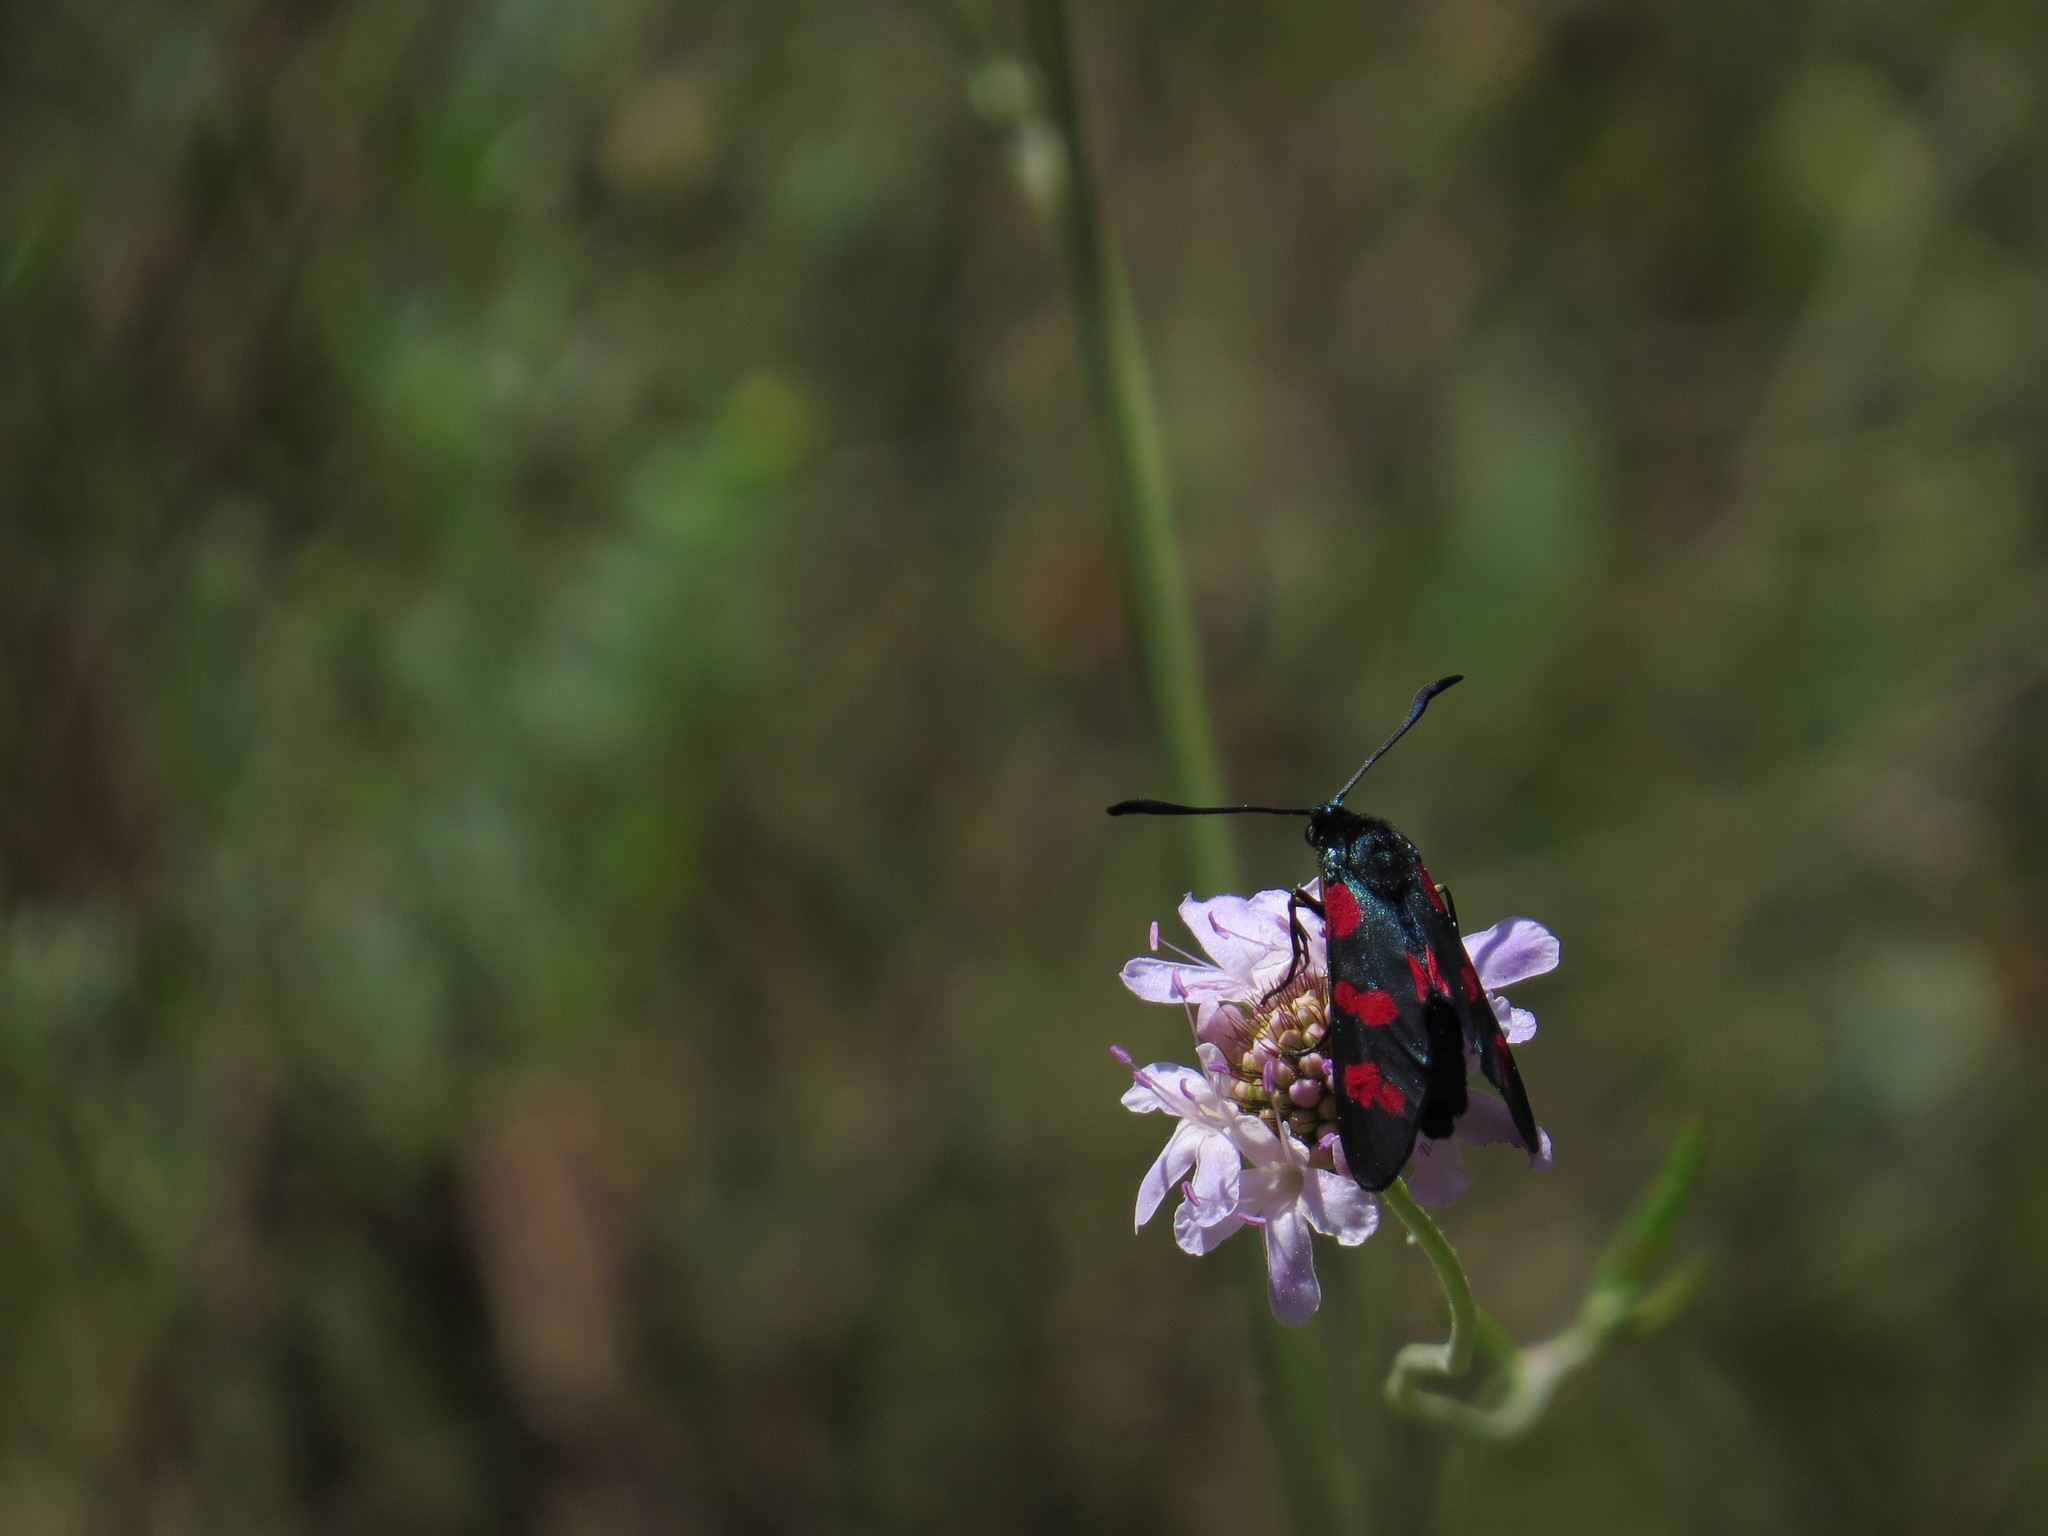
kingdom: Animalia
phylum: Arthropoda
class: Insecta
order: Lepidoptera
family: Zygaenidae
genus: Zygaena
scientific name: Zygaena filipendulae
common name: Six-spot burnet
